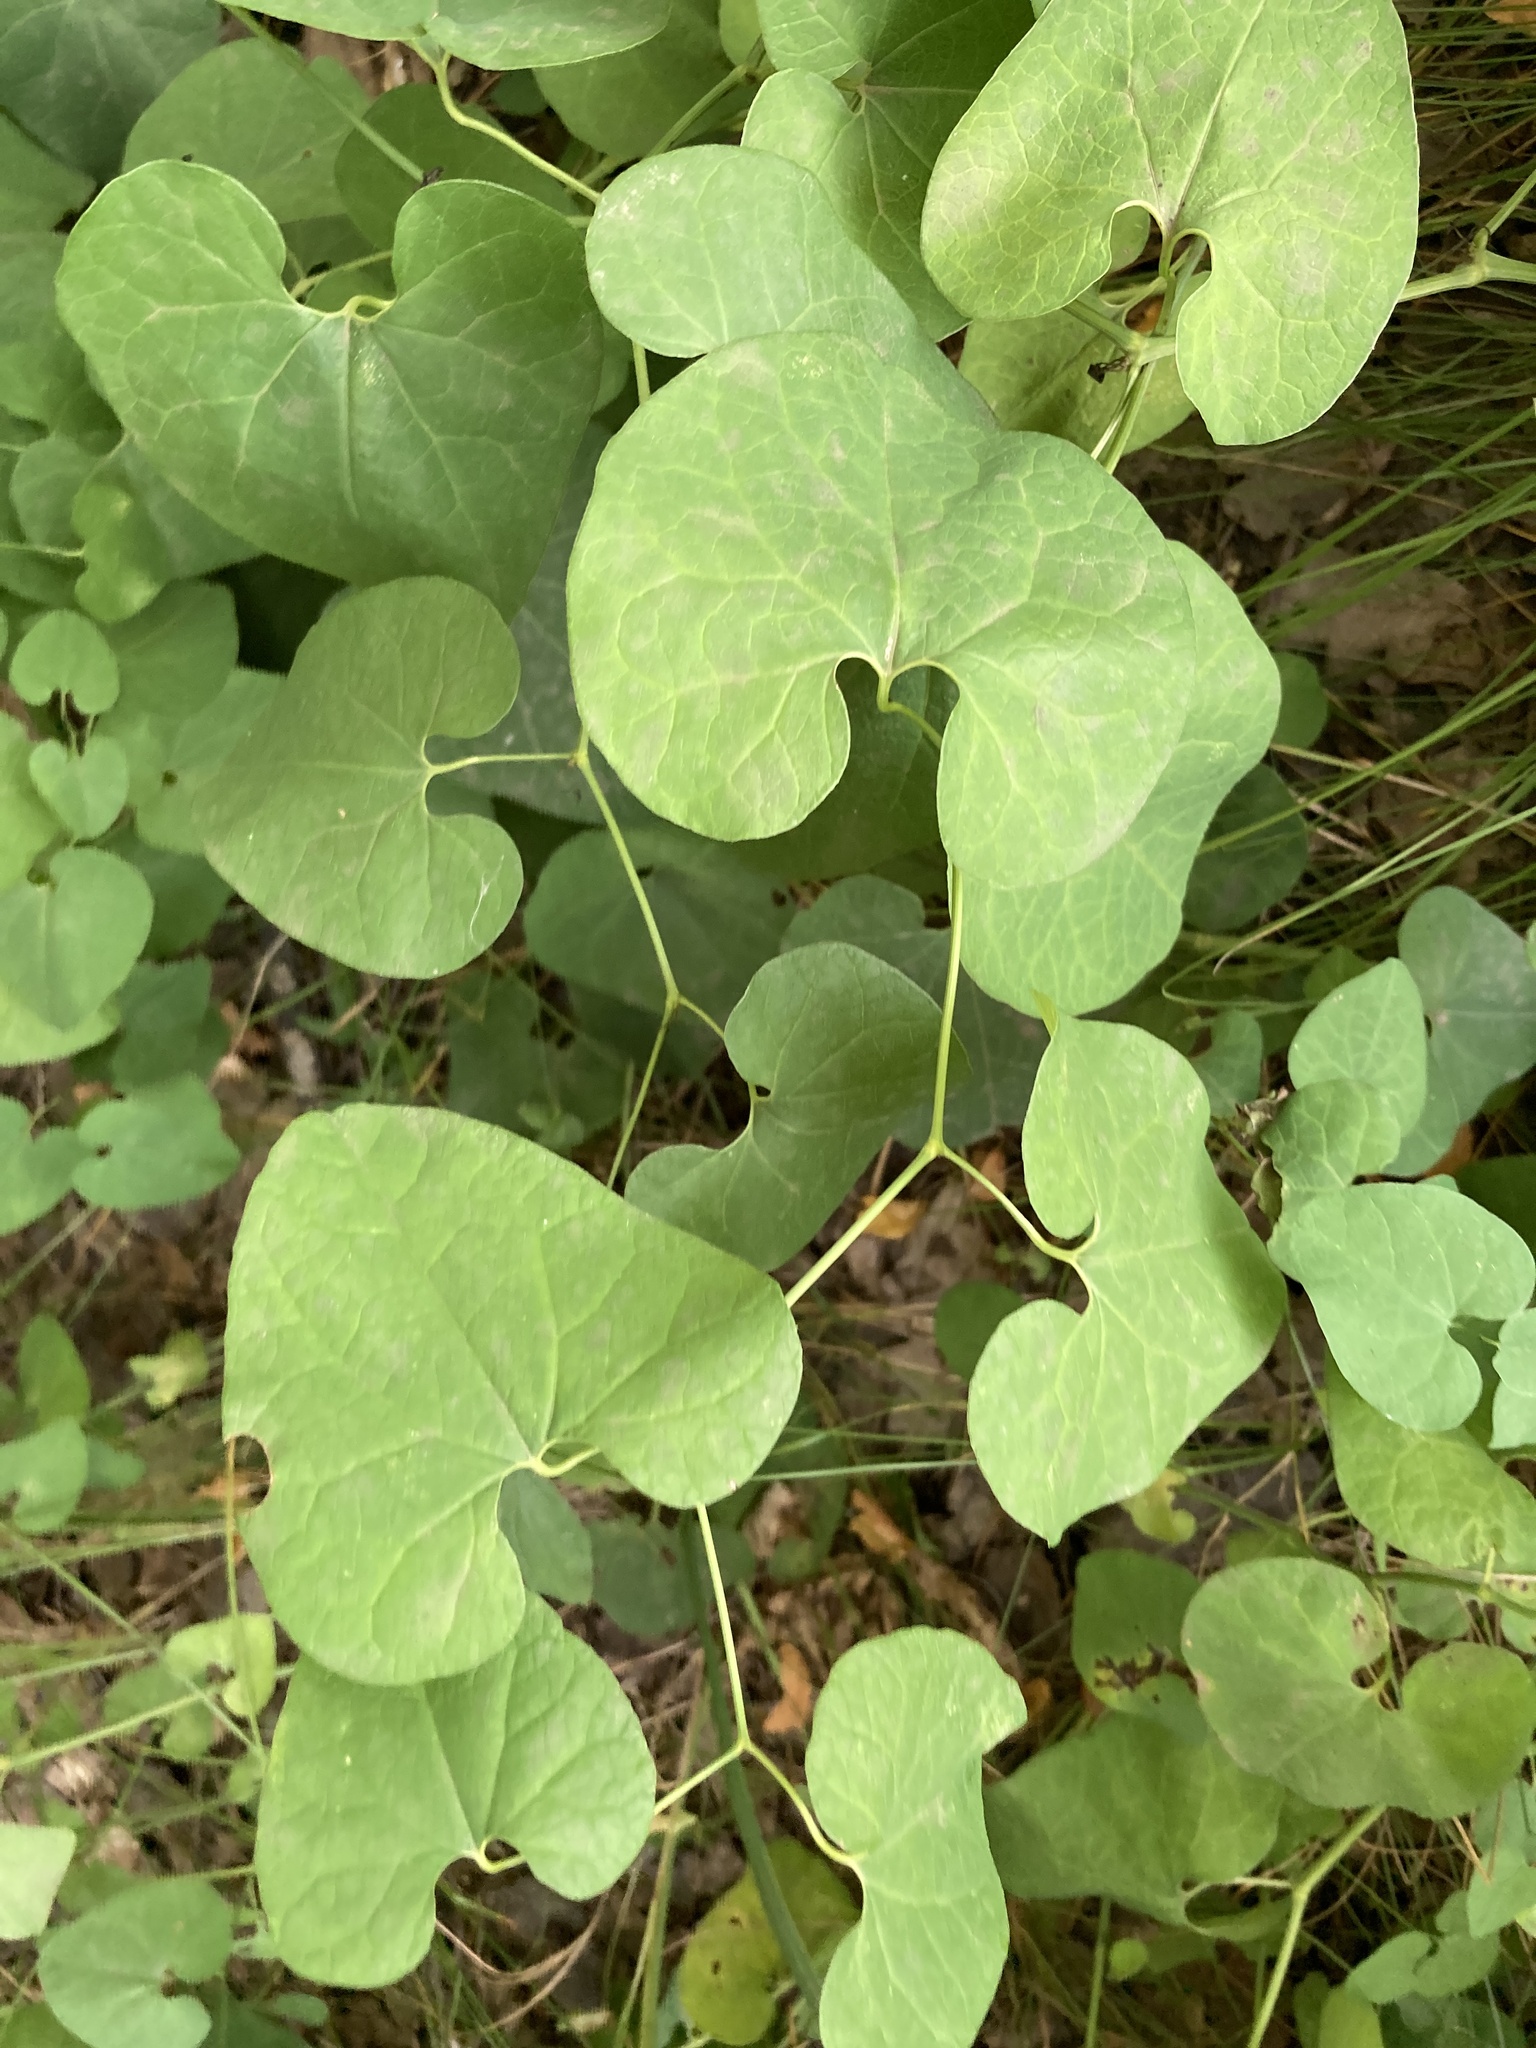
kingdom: Plantae
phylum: Tracheophyta
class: Magnoliopsida
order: Piperales
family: Aristolochiaceae
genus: Aristolochia
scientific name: Aristolochia clematitis
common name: Birthwort
